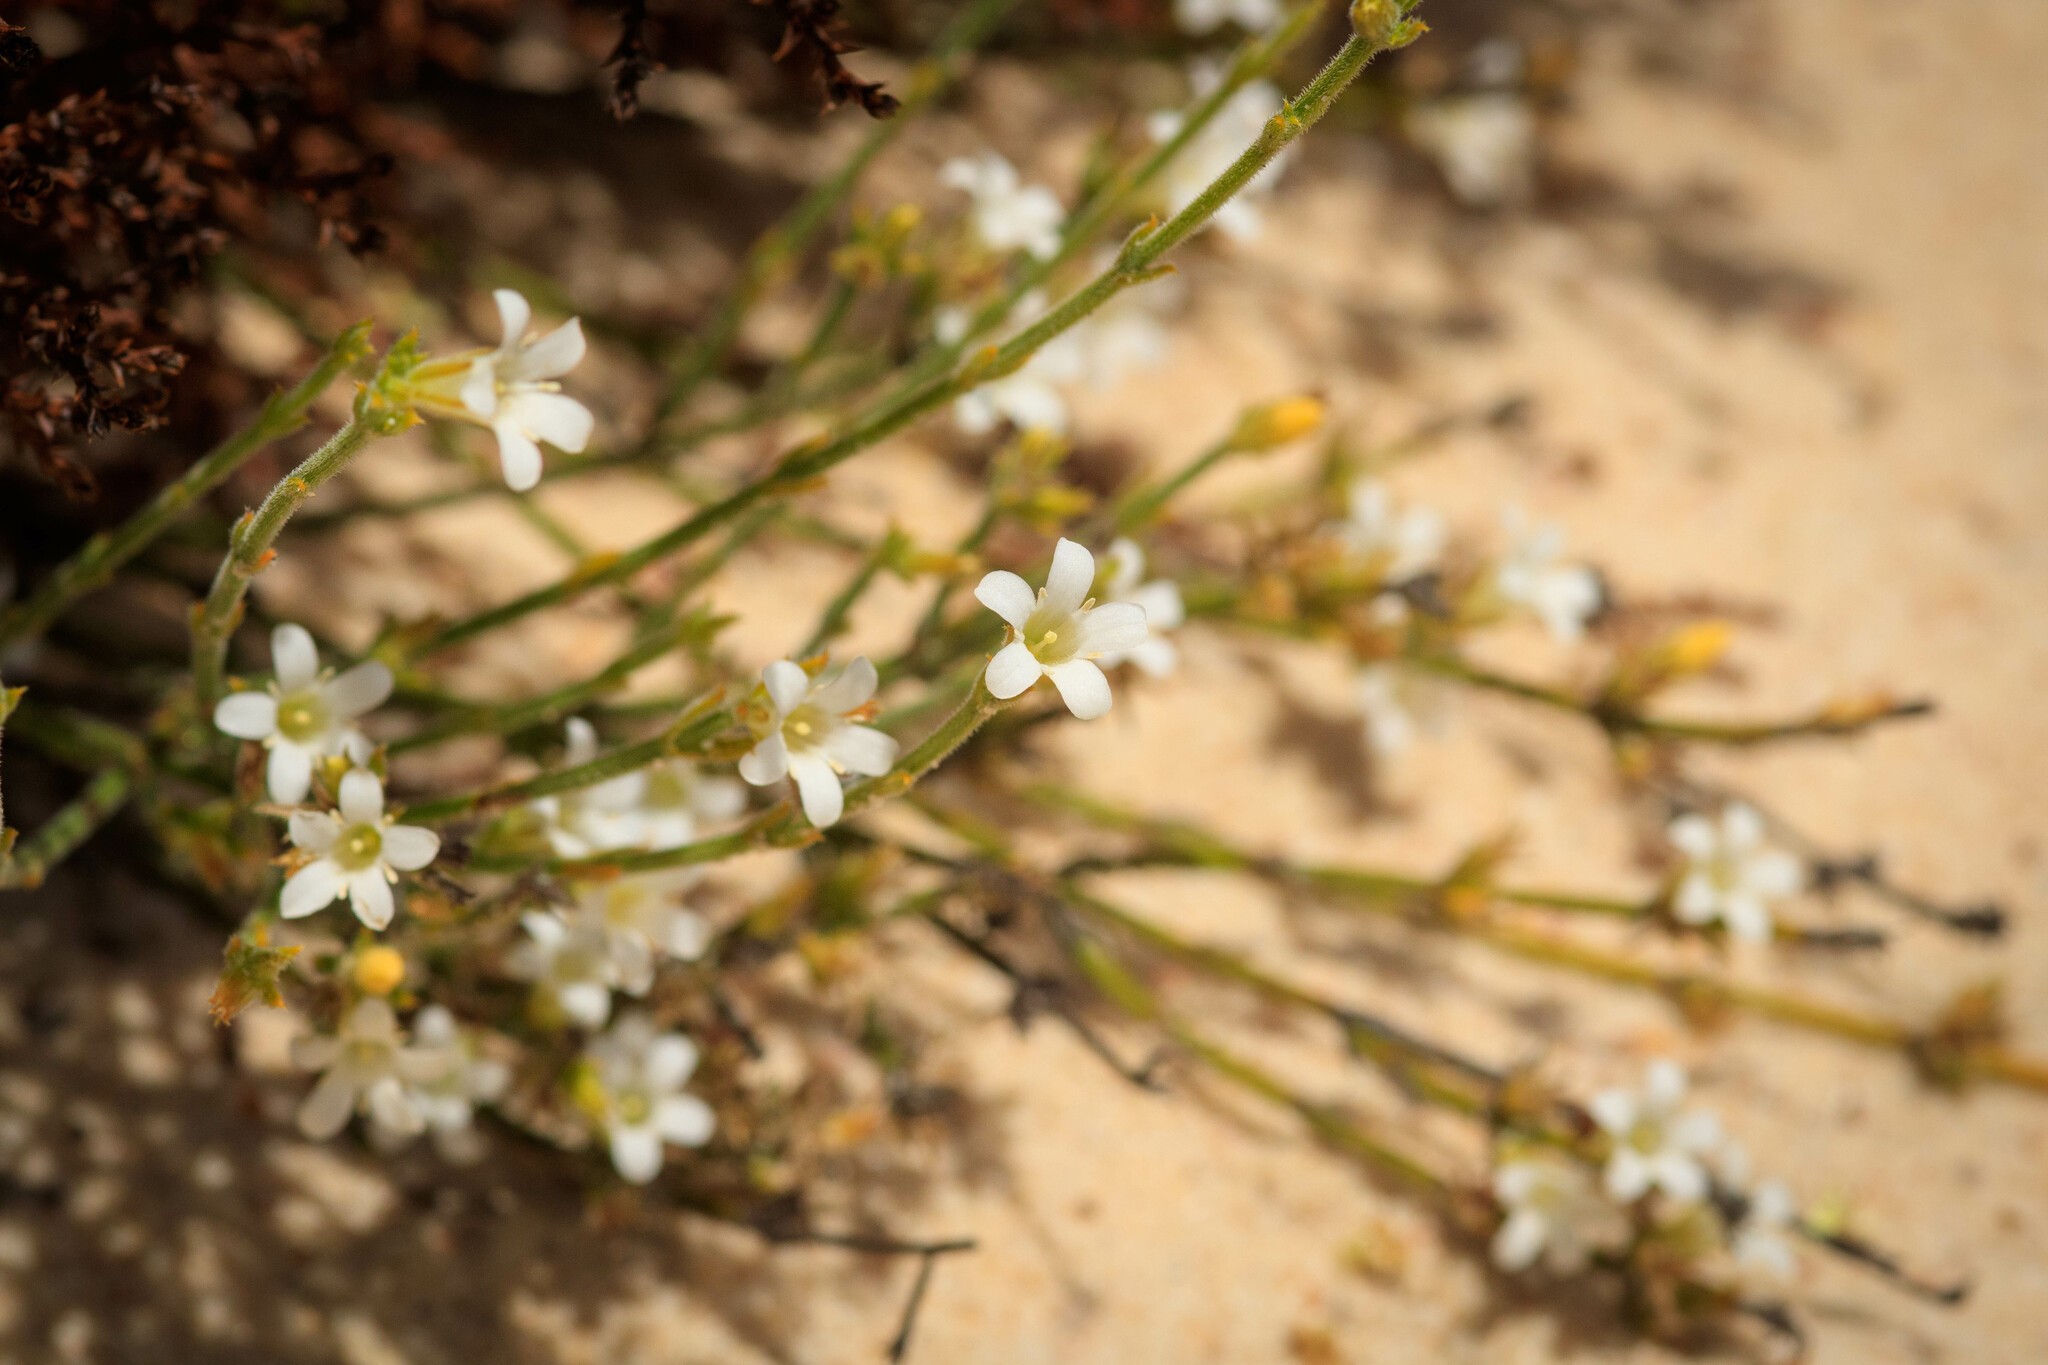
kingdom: Plantae
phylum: Tracheophyta
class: Magnoliopsida
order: Gentianales
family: Loganiaceae
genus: Orianthera
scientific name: Orianthera spermacocea
